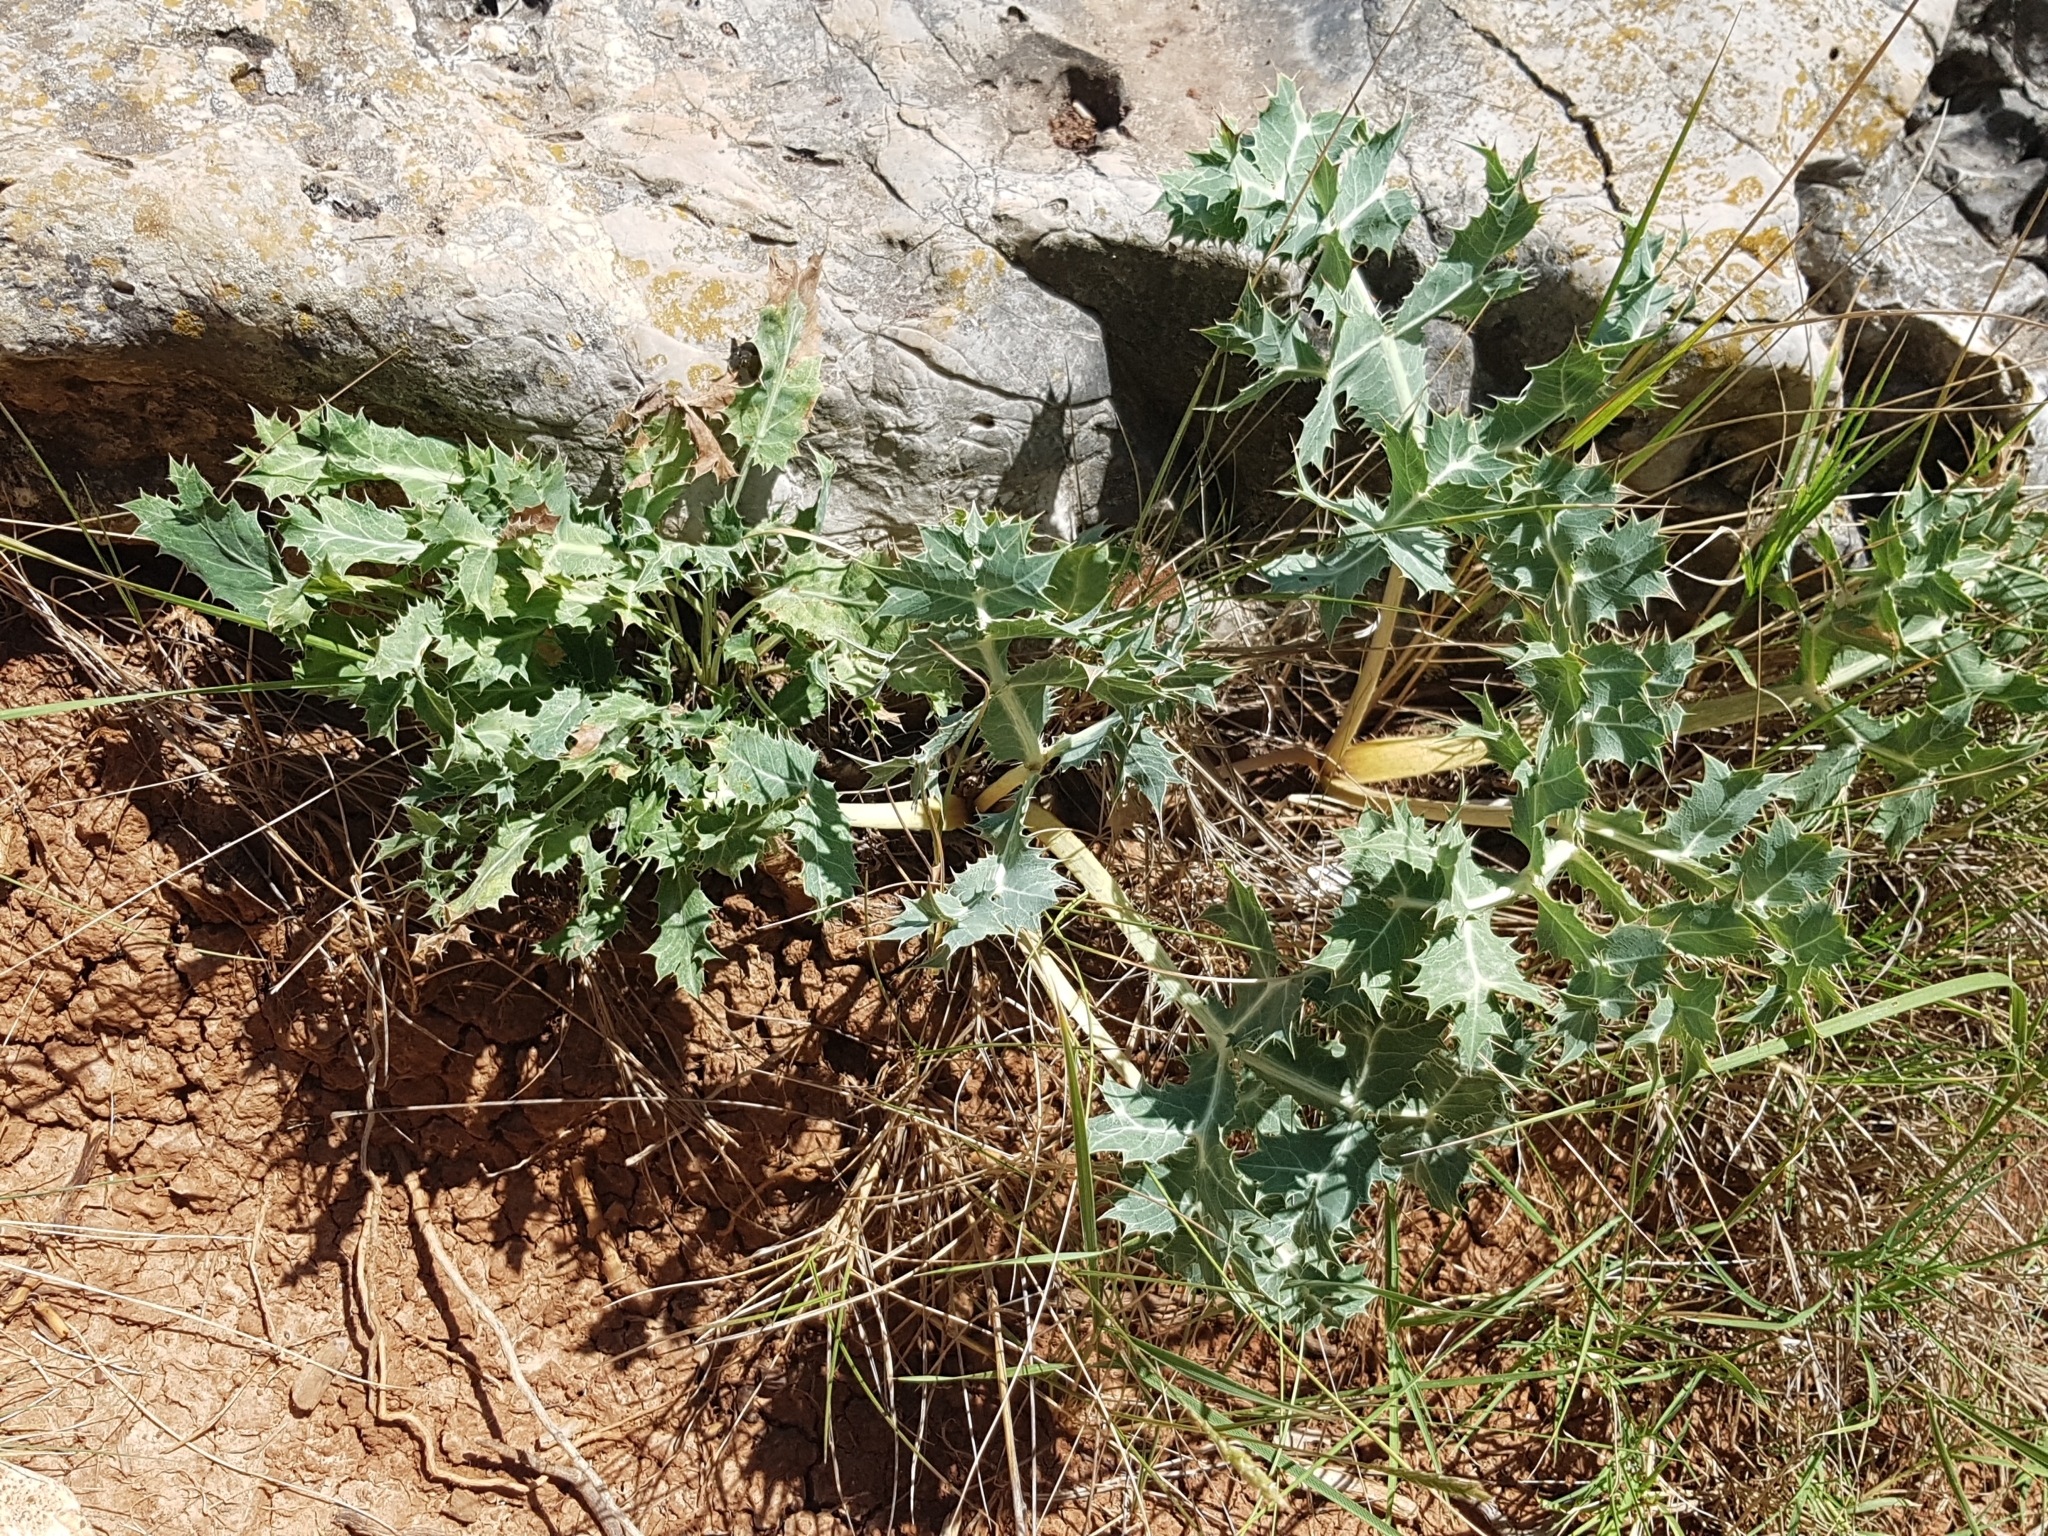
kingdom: Plantae
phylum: Tracheophyta
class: Magnoliopsida
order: Apiales
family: Apiaceae
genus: Eryngium
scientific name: Eryngium campestre
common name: Field eryngo
